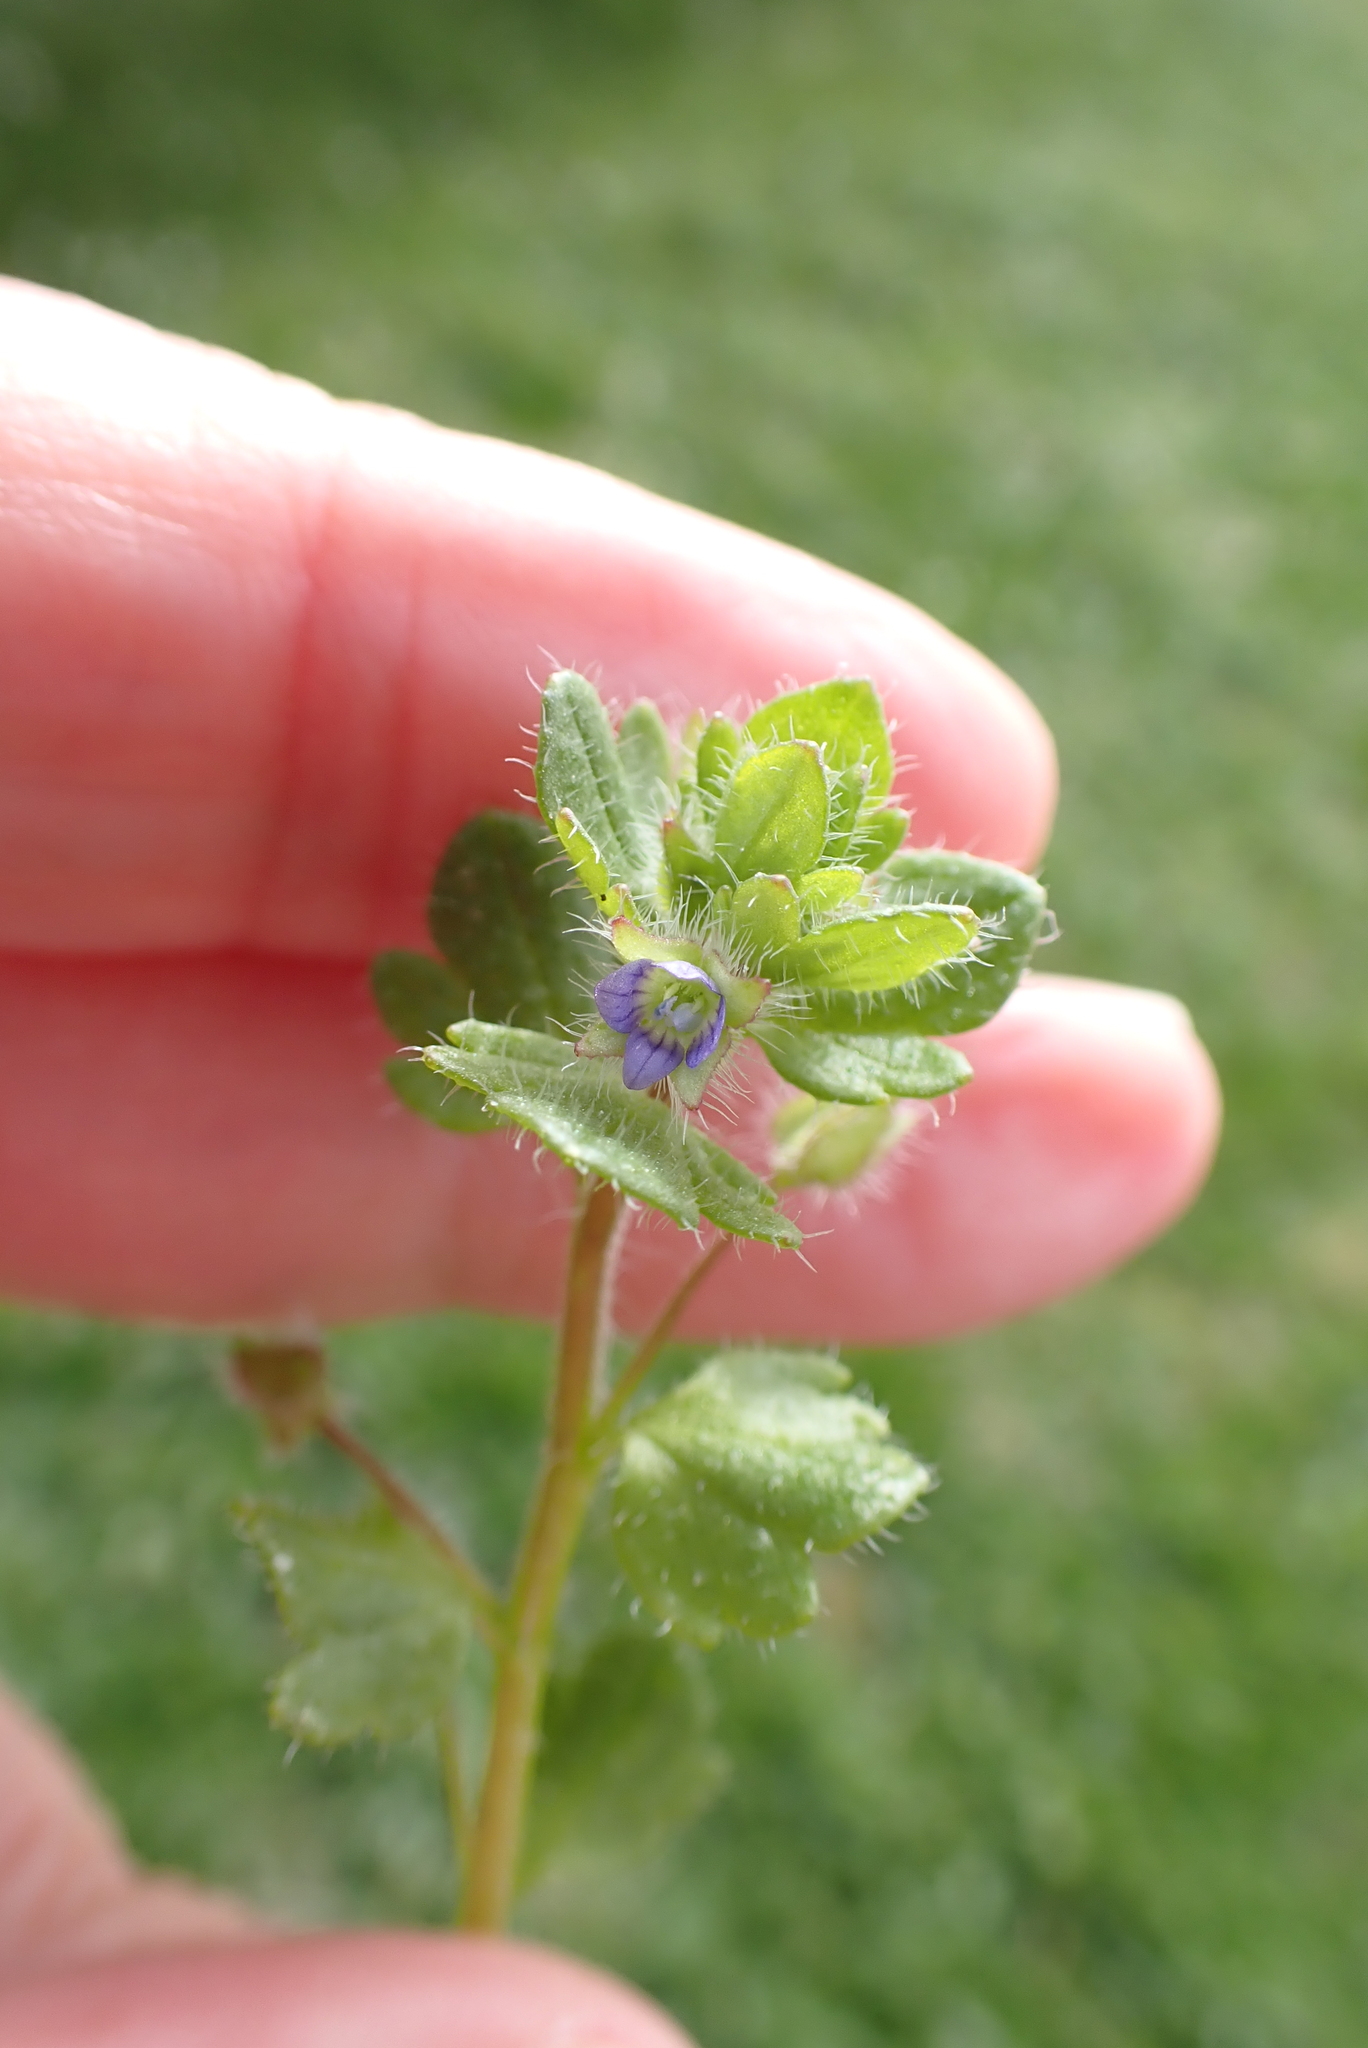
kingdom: Plantae
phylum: Tracheophyta
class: Magnoliopsida
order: Lamiales
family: Plantaginaceae
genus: Veronica
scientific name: Veronica hederifolia
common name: Ivy-leaved speedwell
